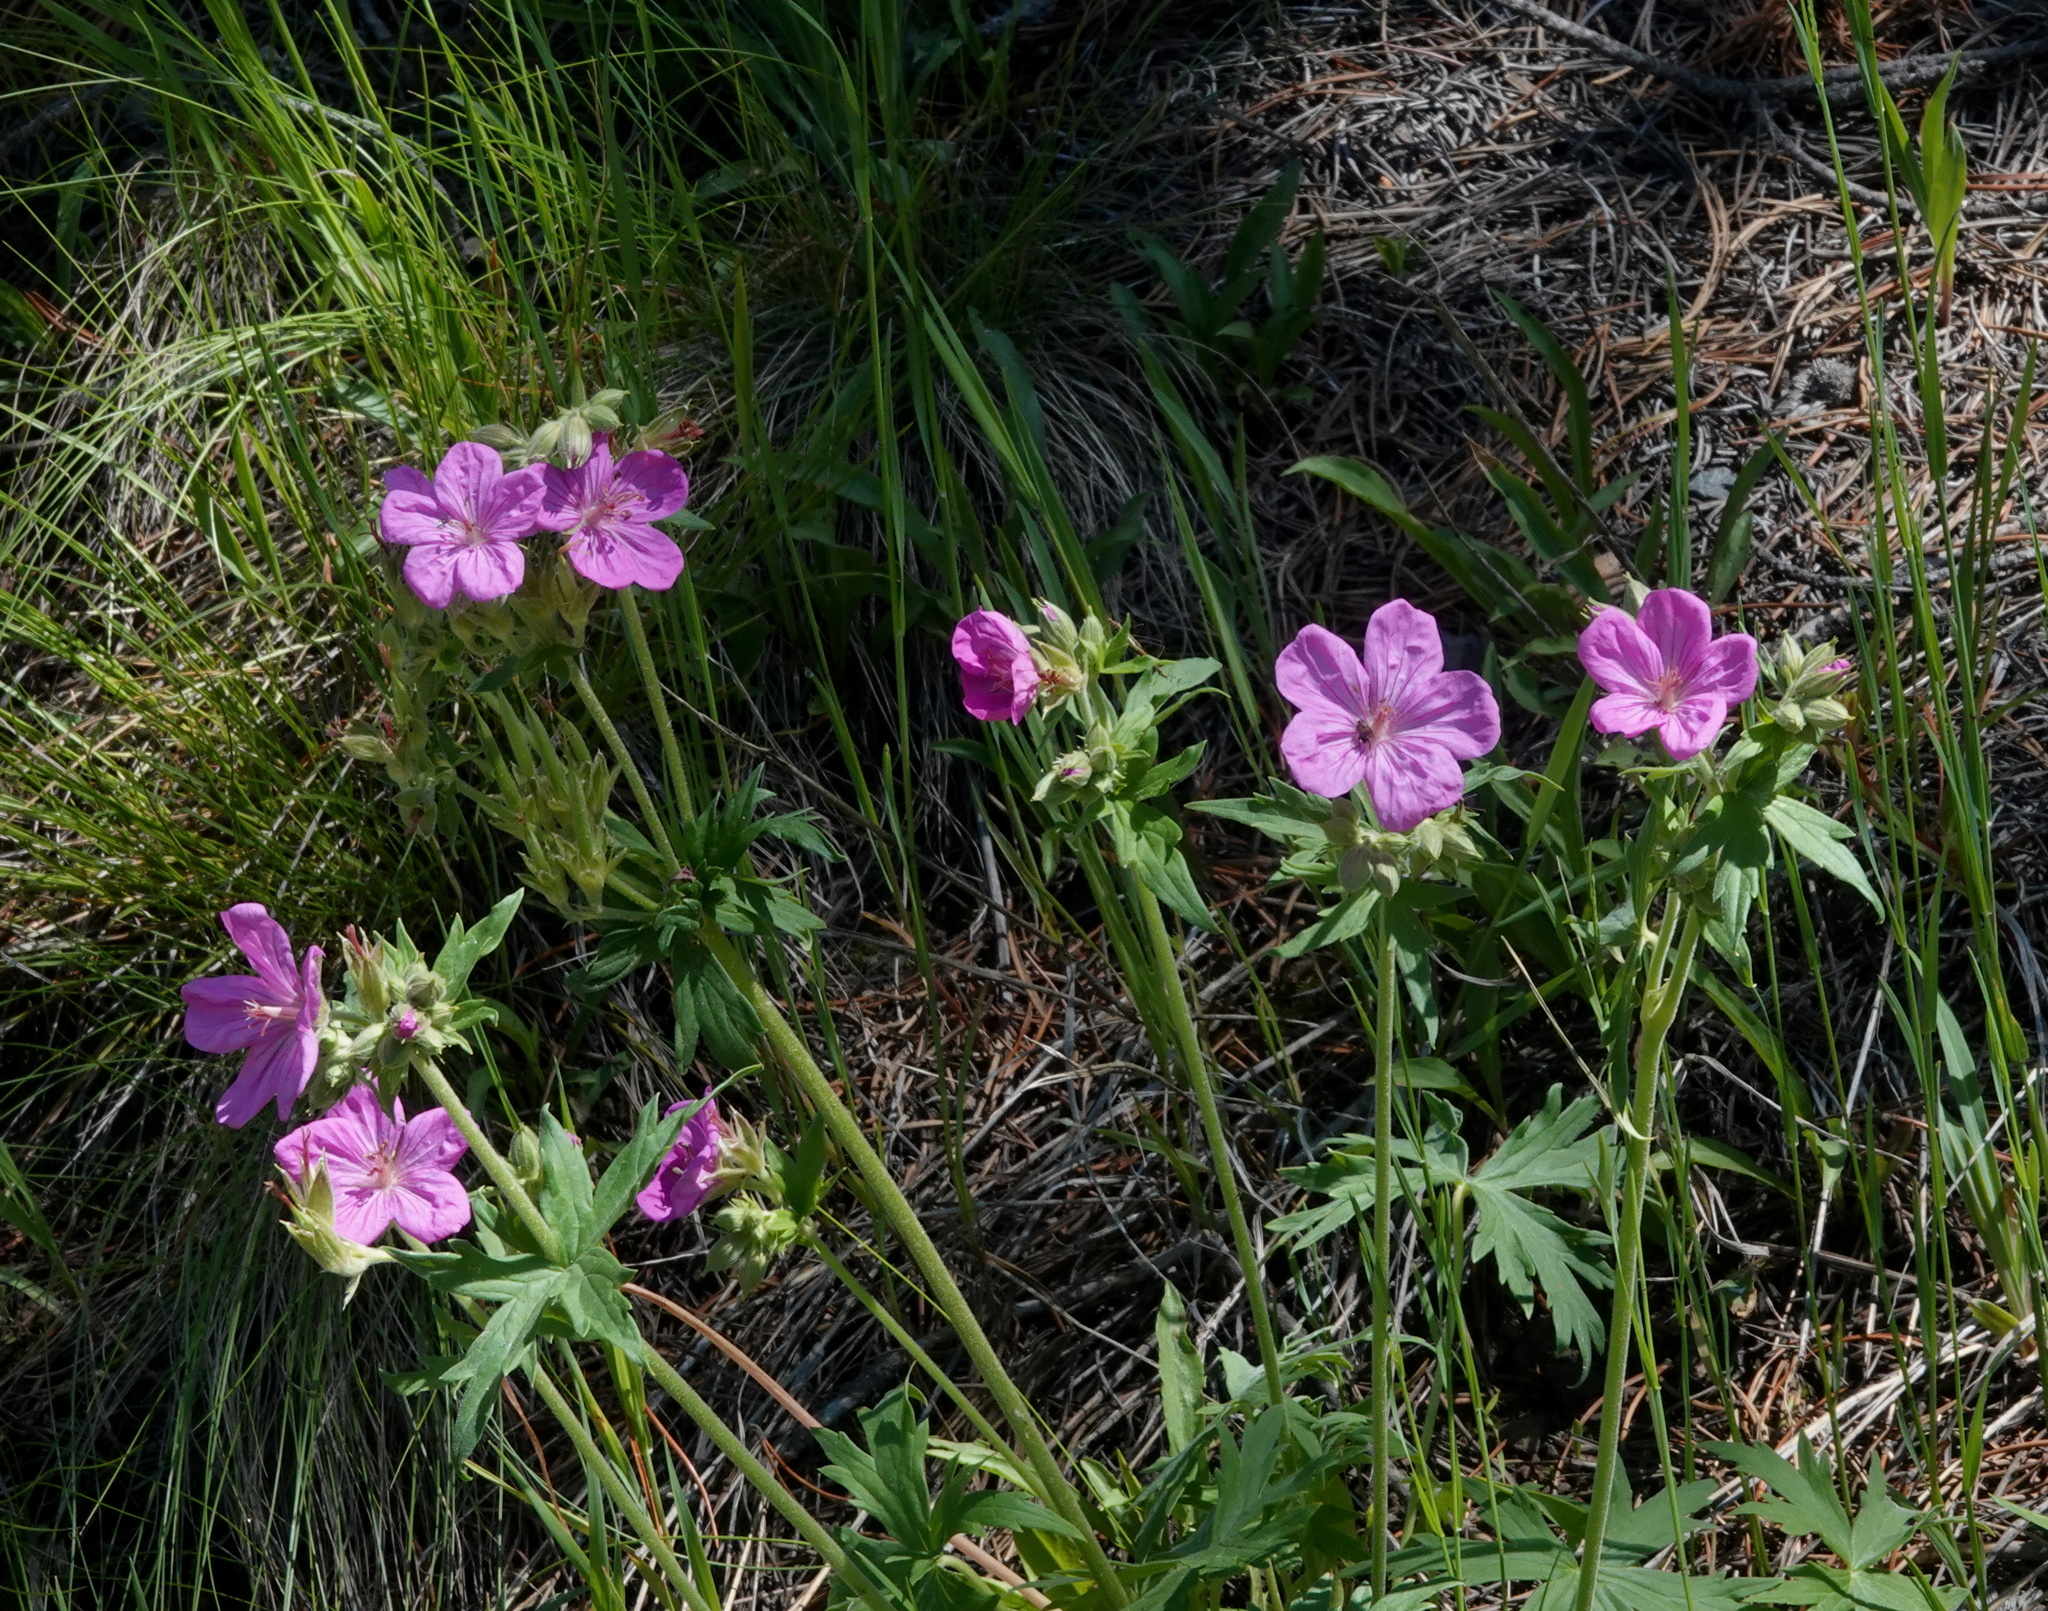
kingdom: Plantae
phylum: Tracheophyta
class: Magnoliopsida
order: Geraniales
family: Geraniaceae
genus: Geranium
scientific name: Geranium viscosissimum
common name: Purple geranium
